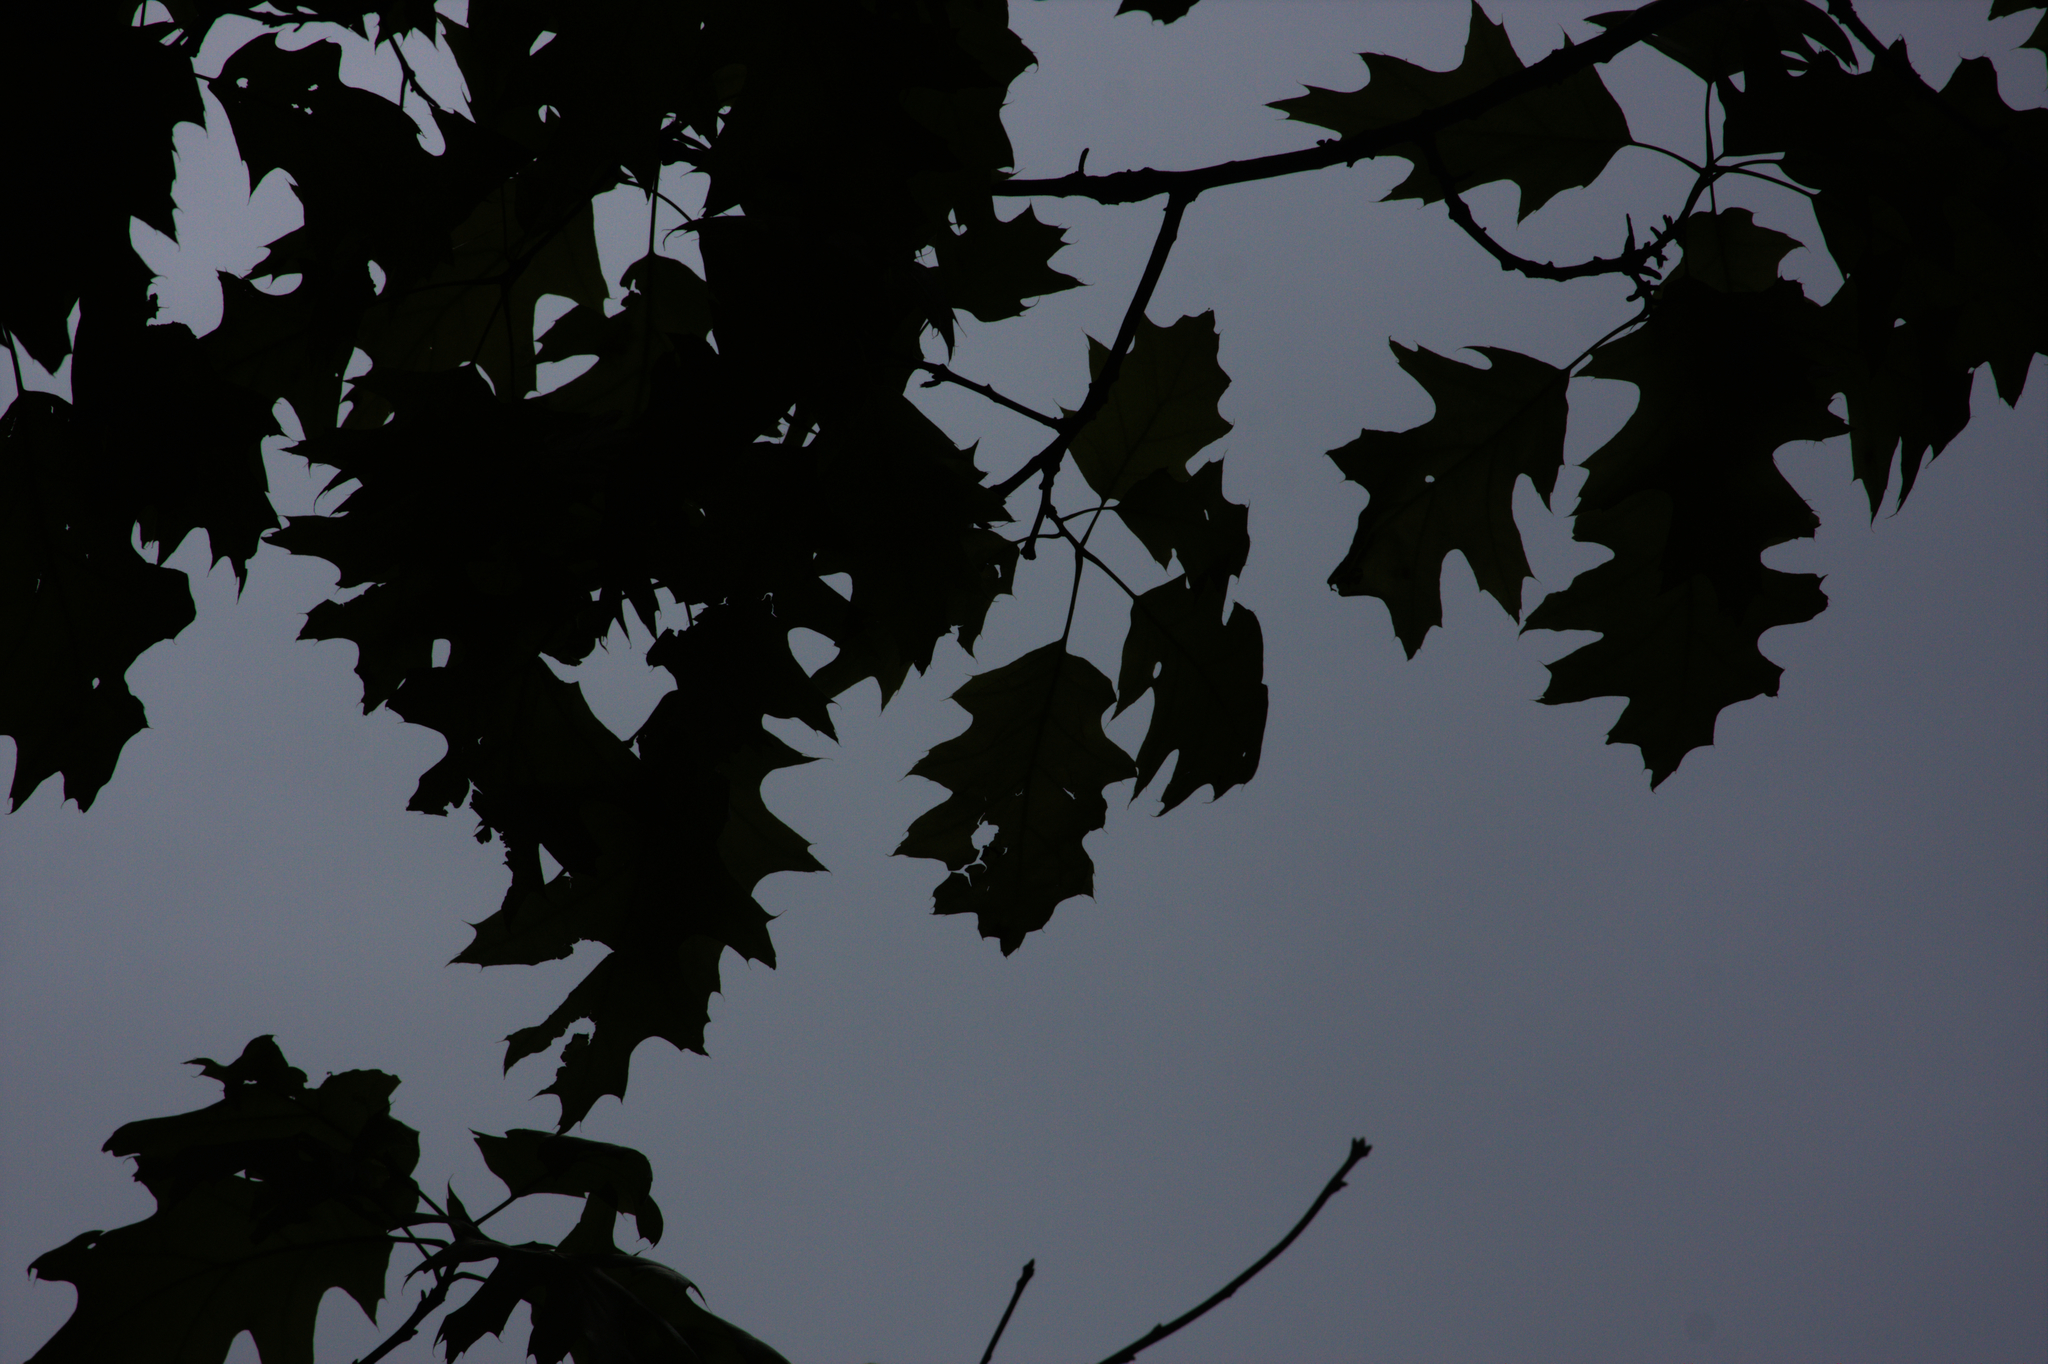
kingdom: Plantae
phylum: Tracheophyta
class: Magnoliopsida
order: Fagales
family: Fagaceae
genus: Quercus
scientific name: Quercus rubra
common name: Red oak
